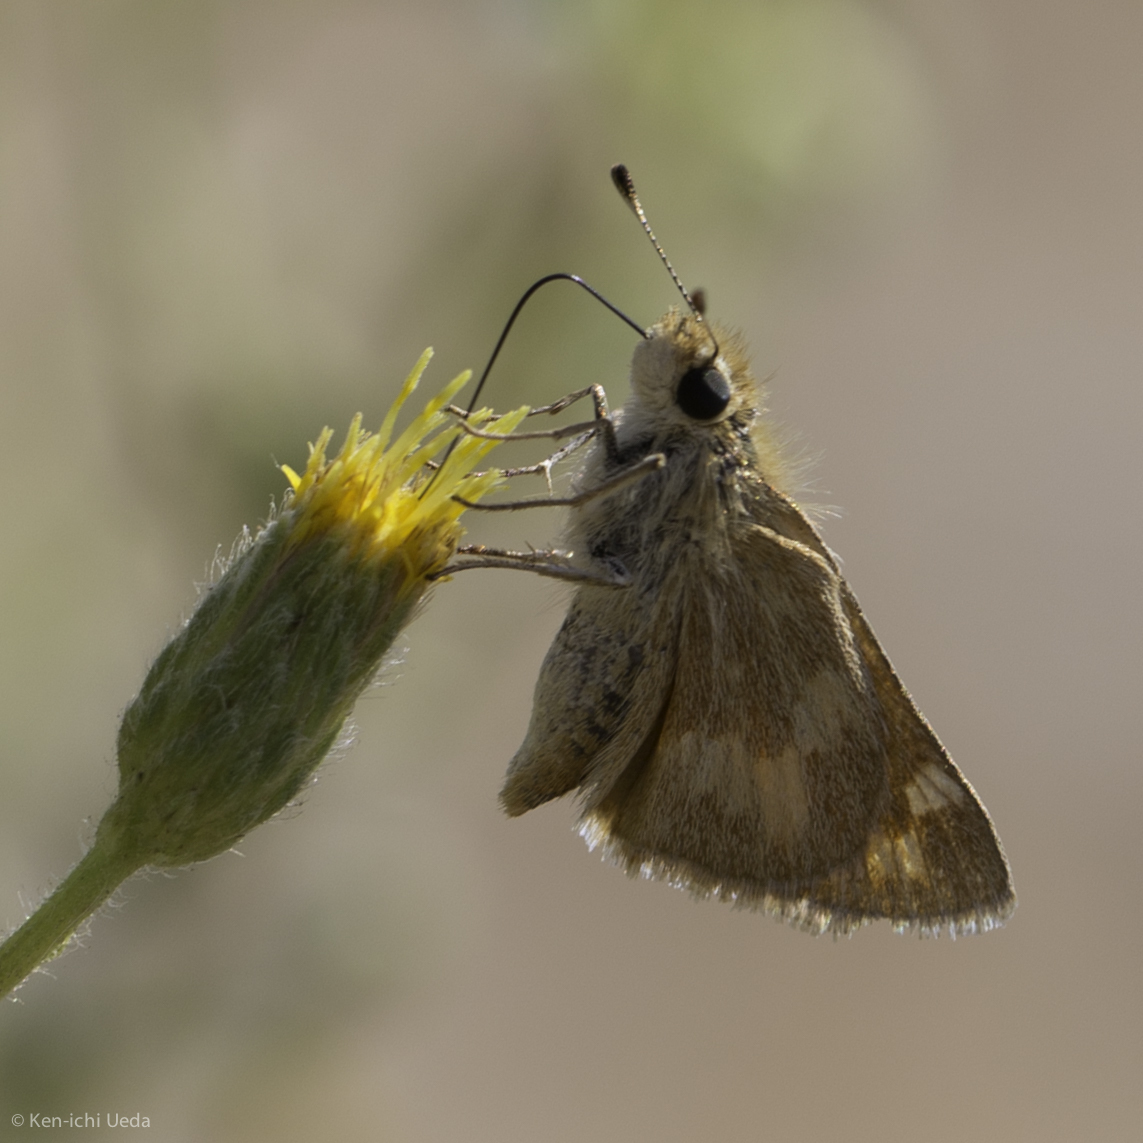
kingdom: Animalia
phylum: Arthropoda
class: Insecta
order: Lepidoptera
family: Hesperiidae
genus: Ochlodes
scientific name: Ochlodes sylvanoides
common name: Woodland skipper
